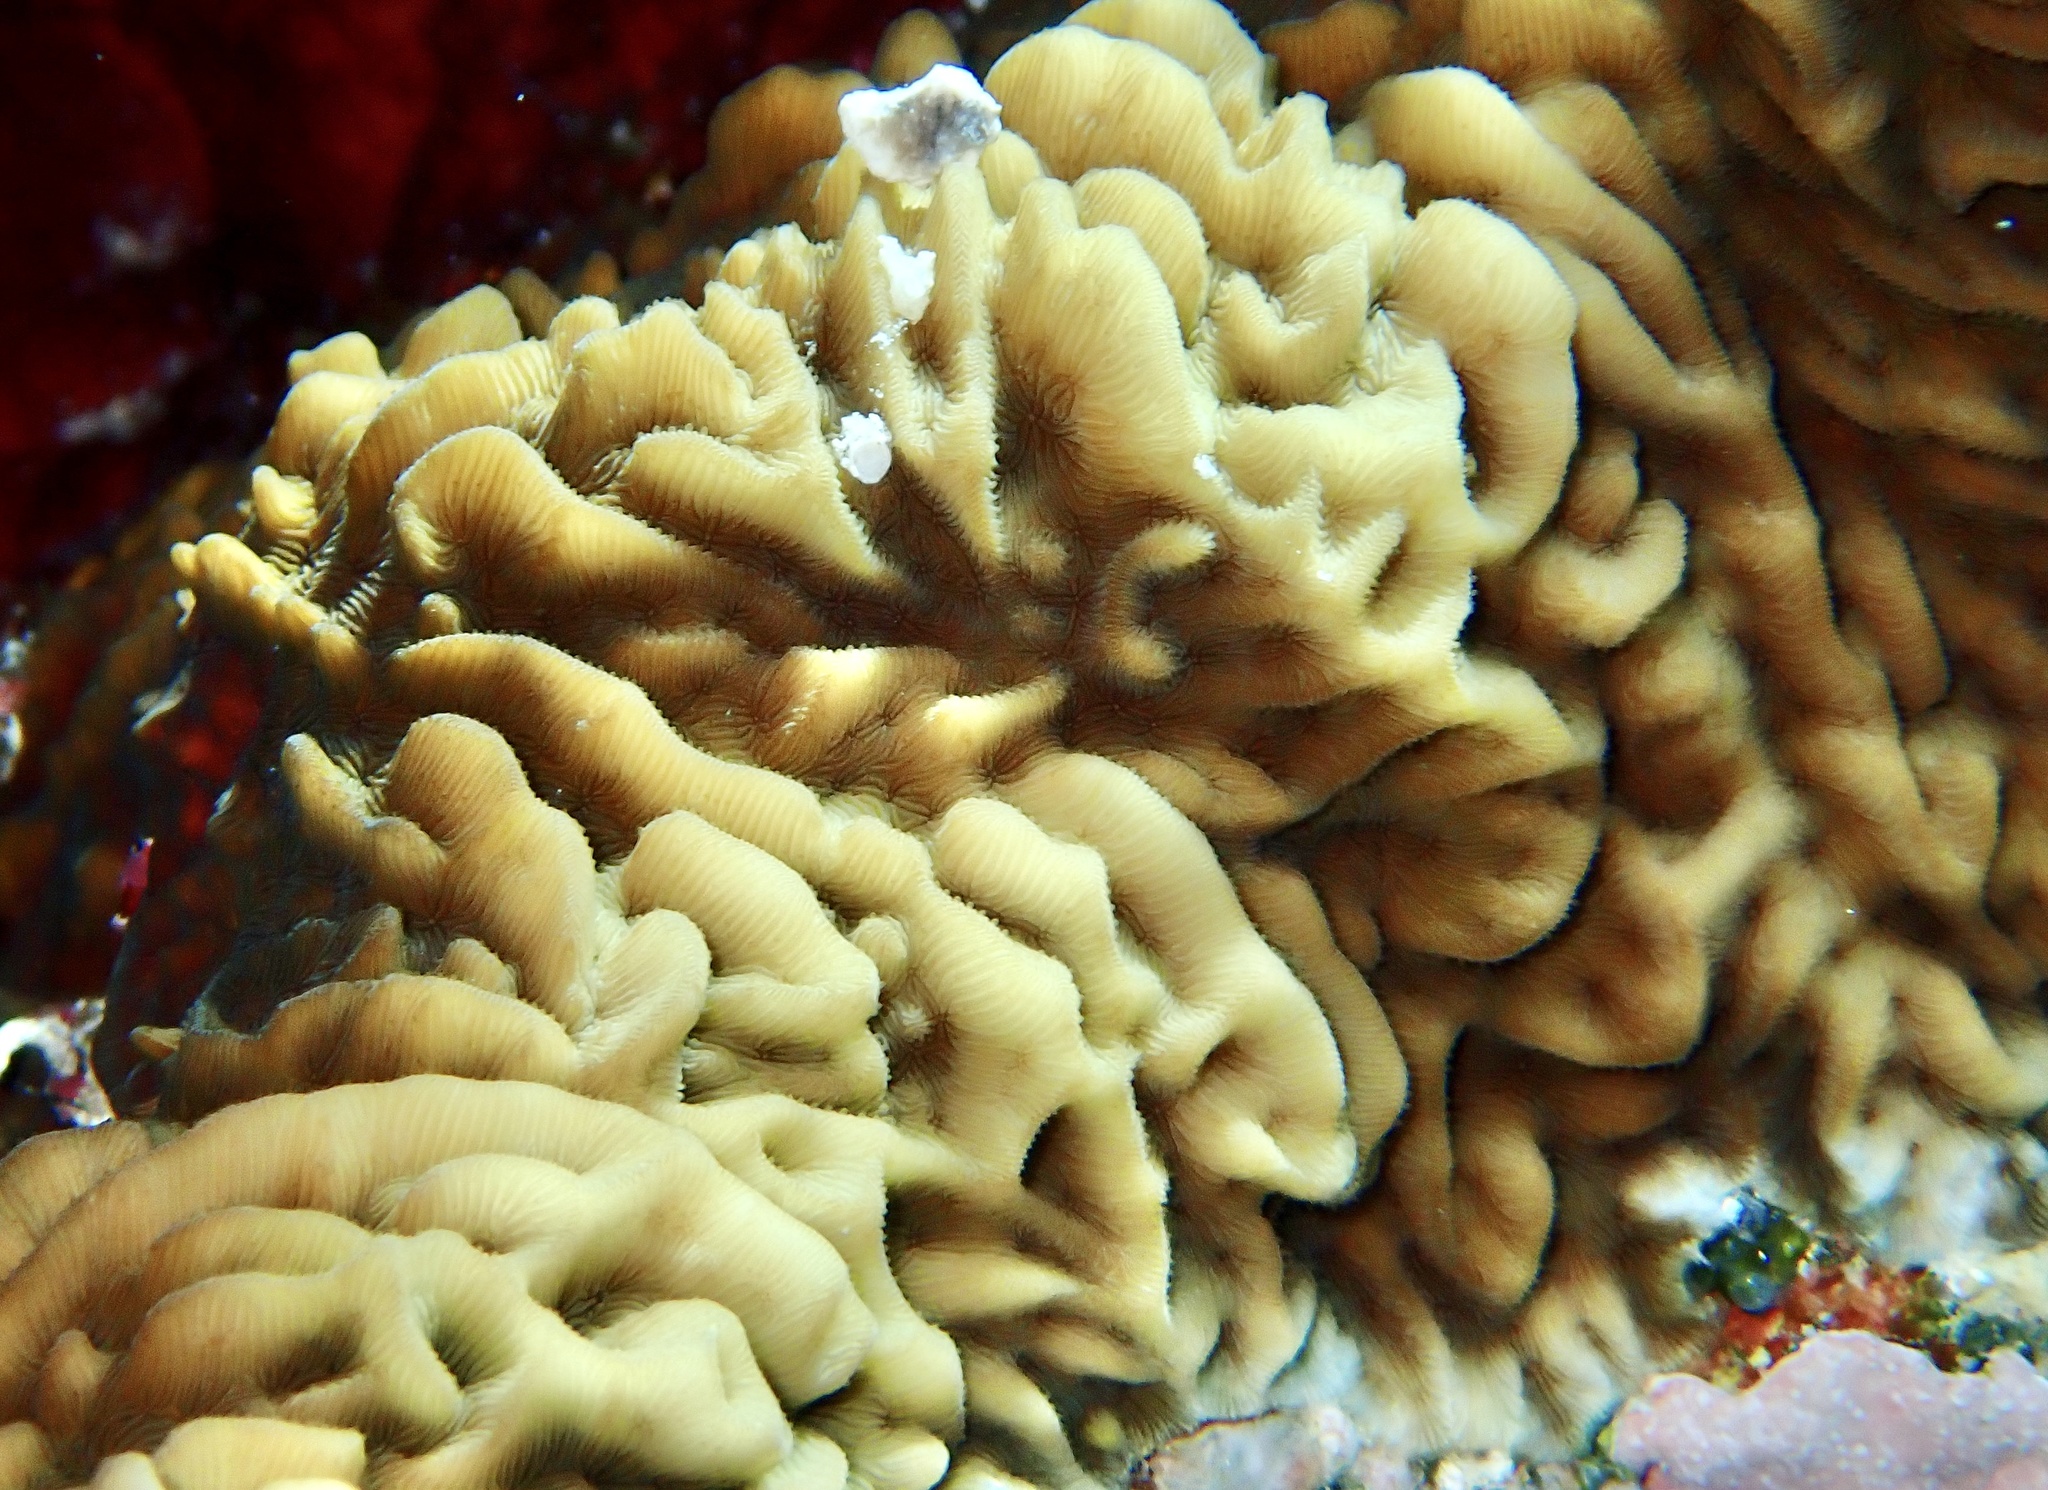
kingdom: Animalia
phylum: Cnidaria
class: Anthozoa
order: Scleractinia
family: Agariciidae
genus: Pavona
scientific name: Pavona varians
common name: Leaf coral
